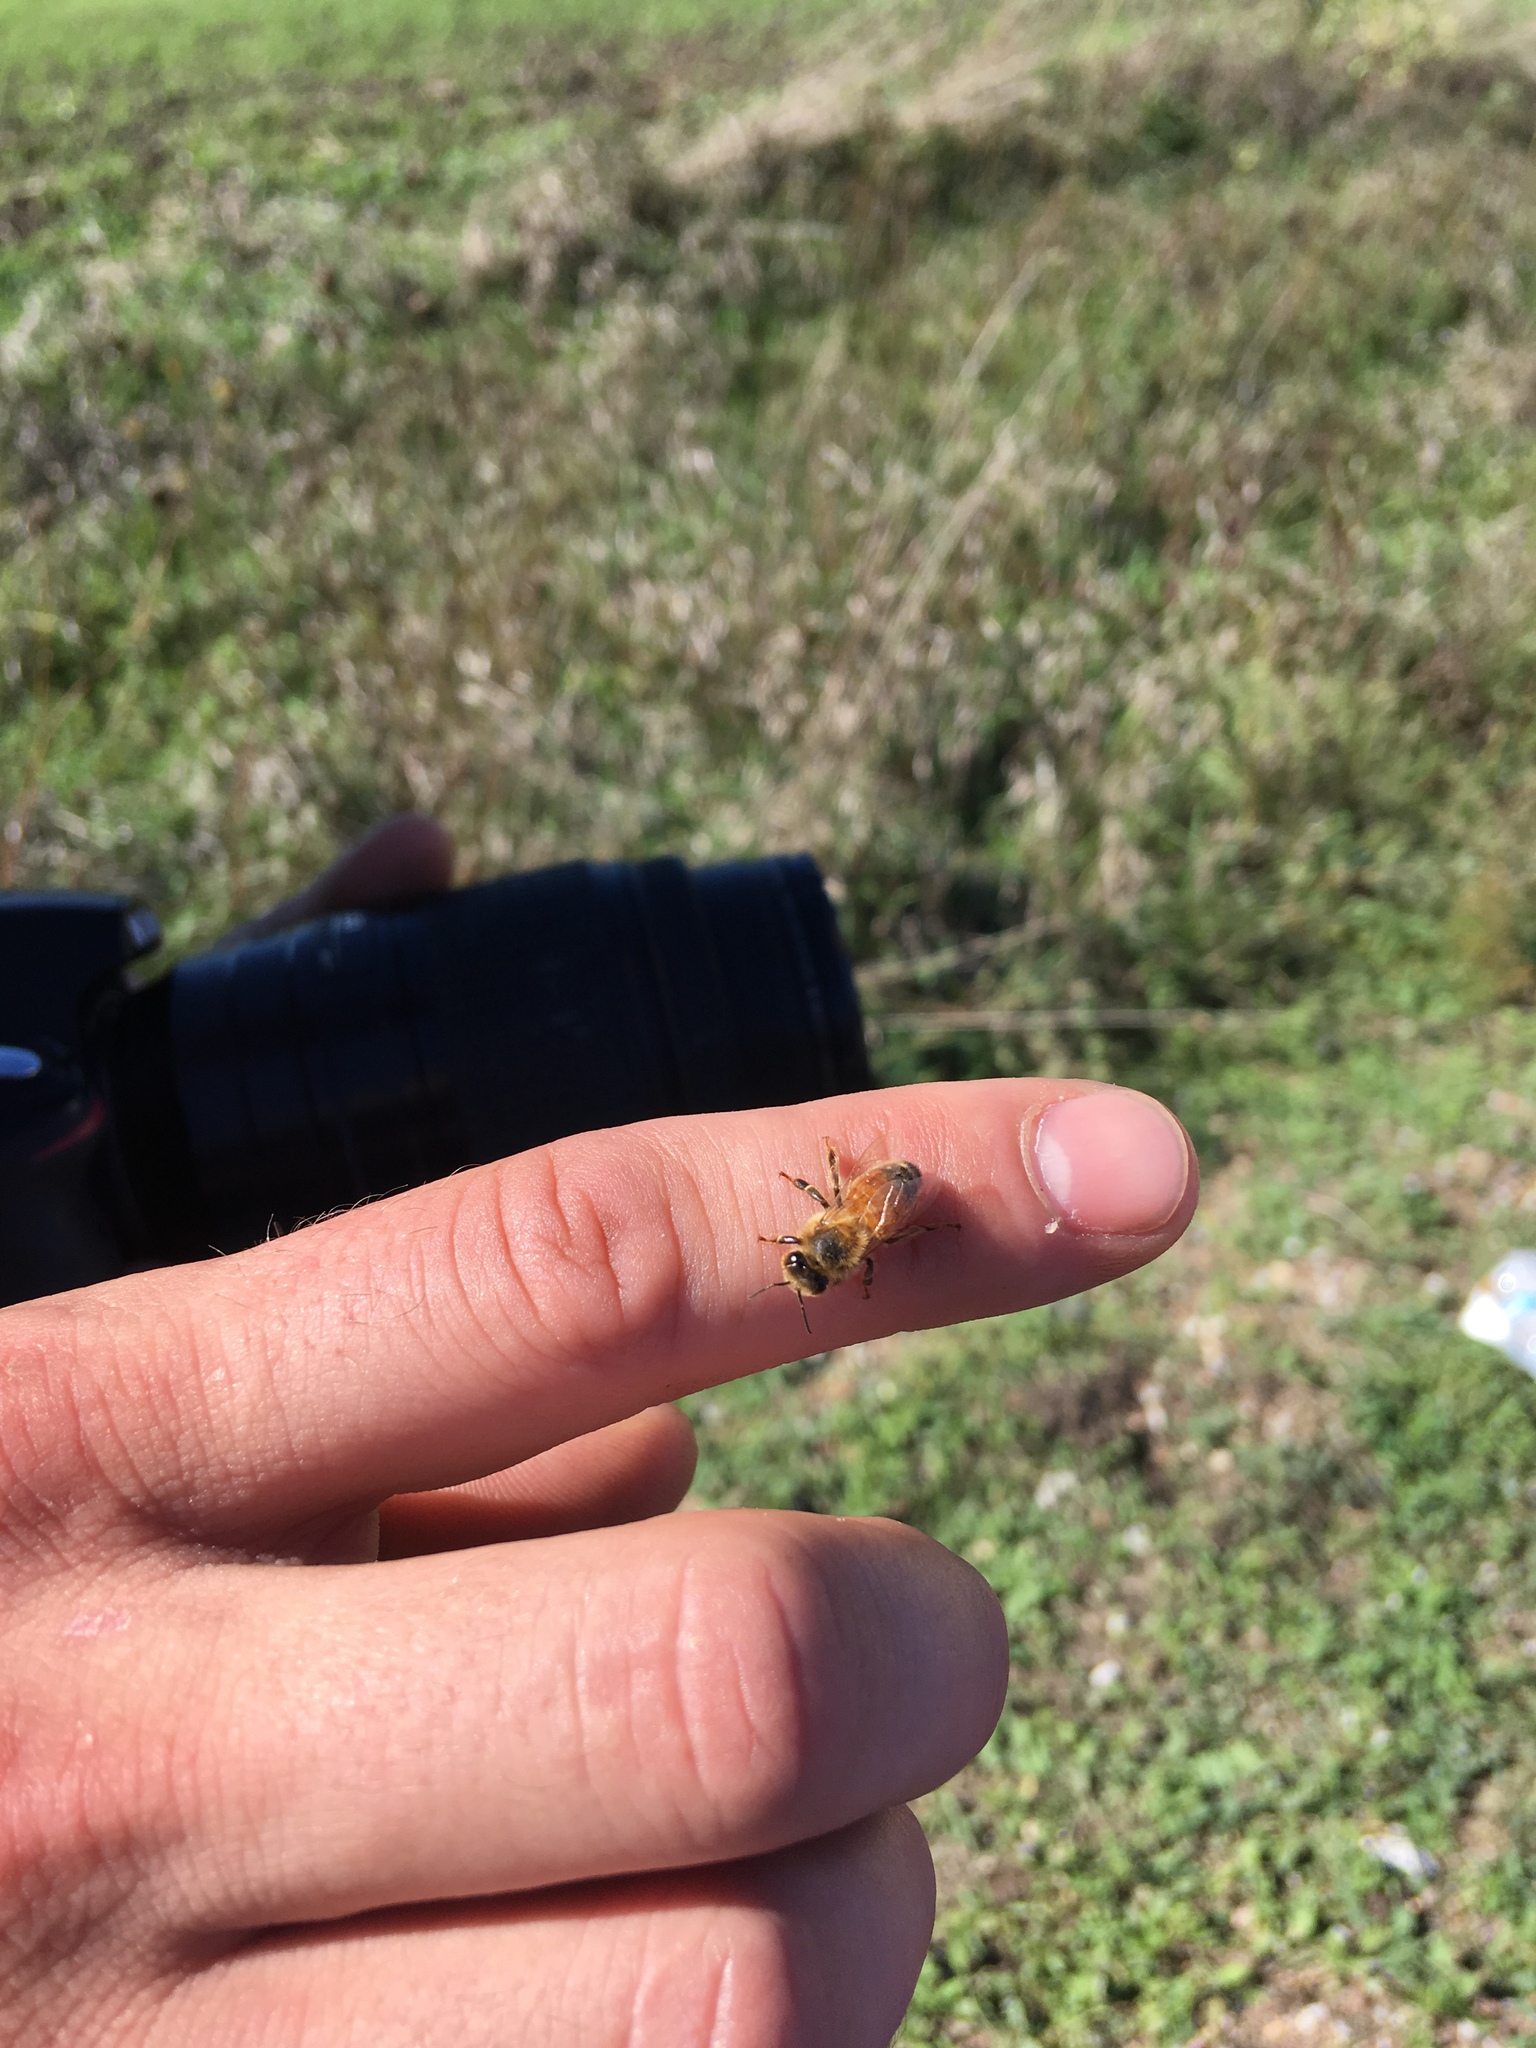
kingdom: Animalia
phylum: Arthropoda
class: Insecta
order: Hymenoptera
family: Apidae
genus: Apis
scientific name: Apis mellifera
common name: Honey bee
